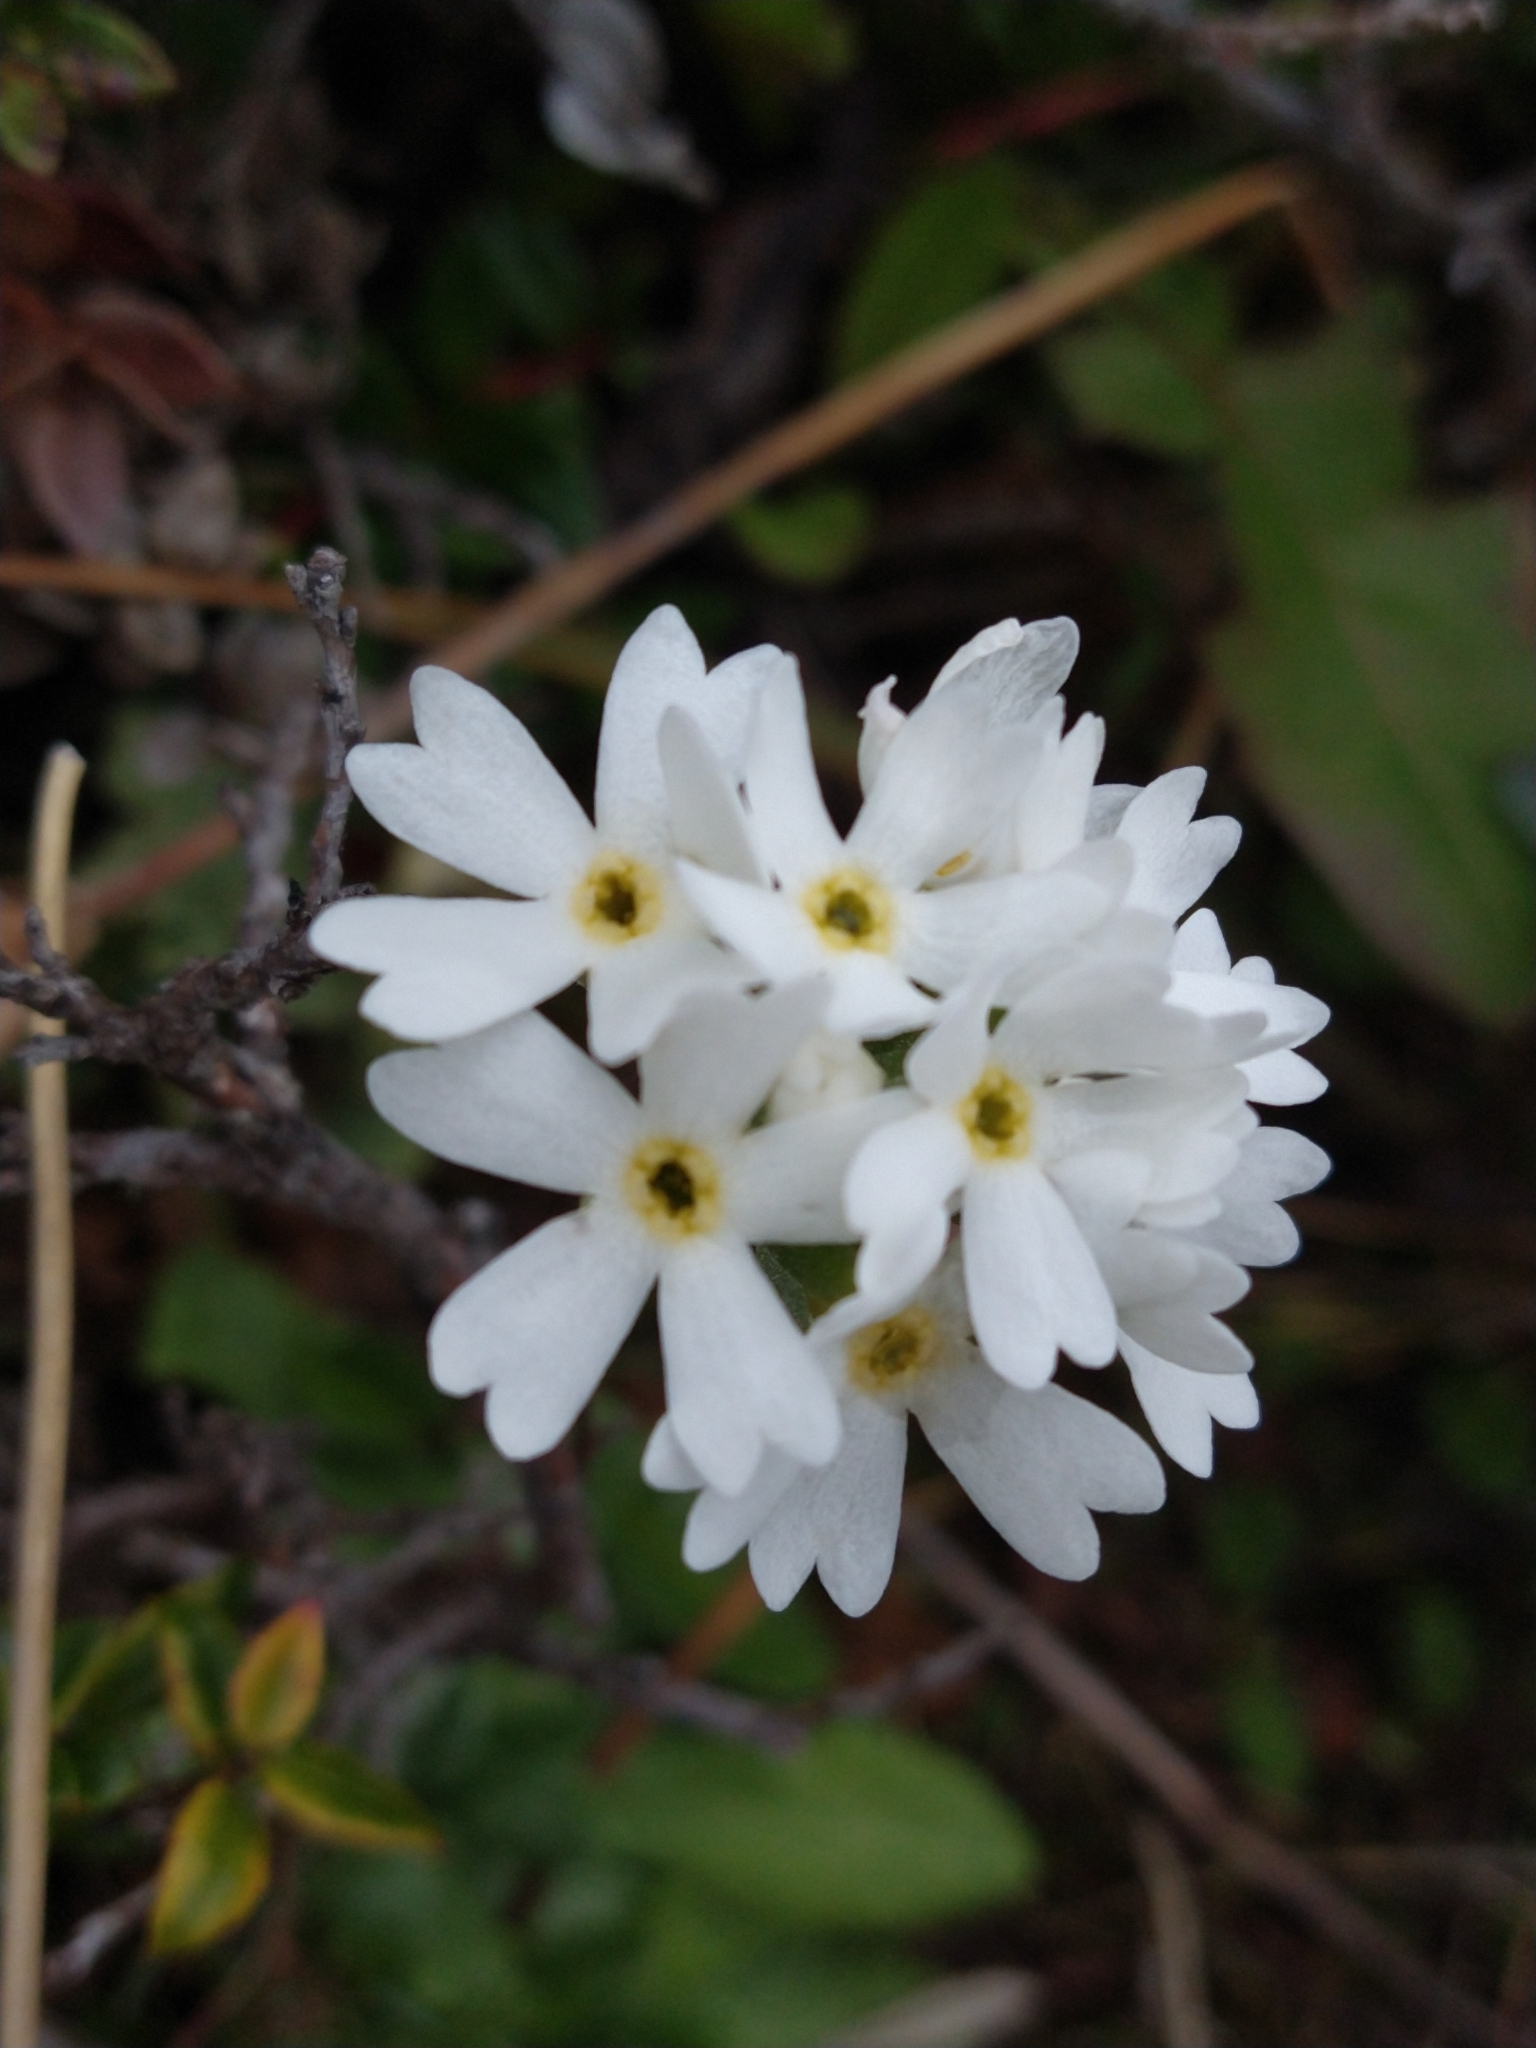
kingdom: Plantae
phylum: Tracheophyta
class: Magnoliopsida
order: Ericales
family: Primulaceae
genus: Primula
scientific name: Primula magellanica
